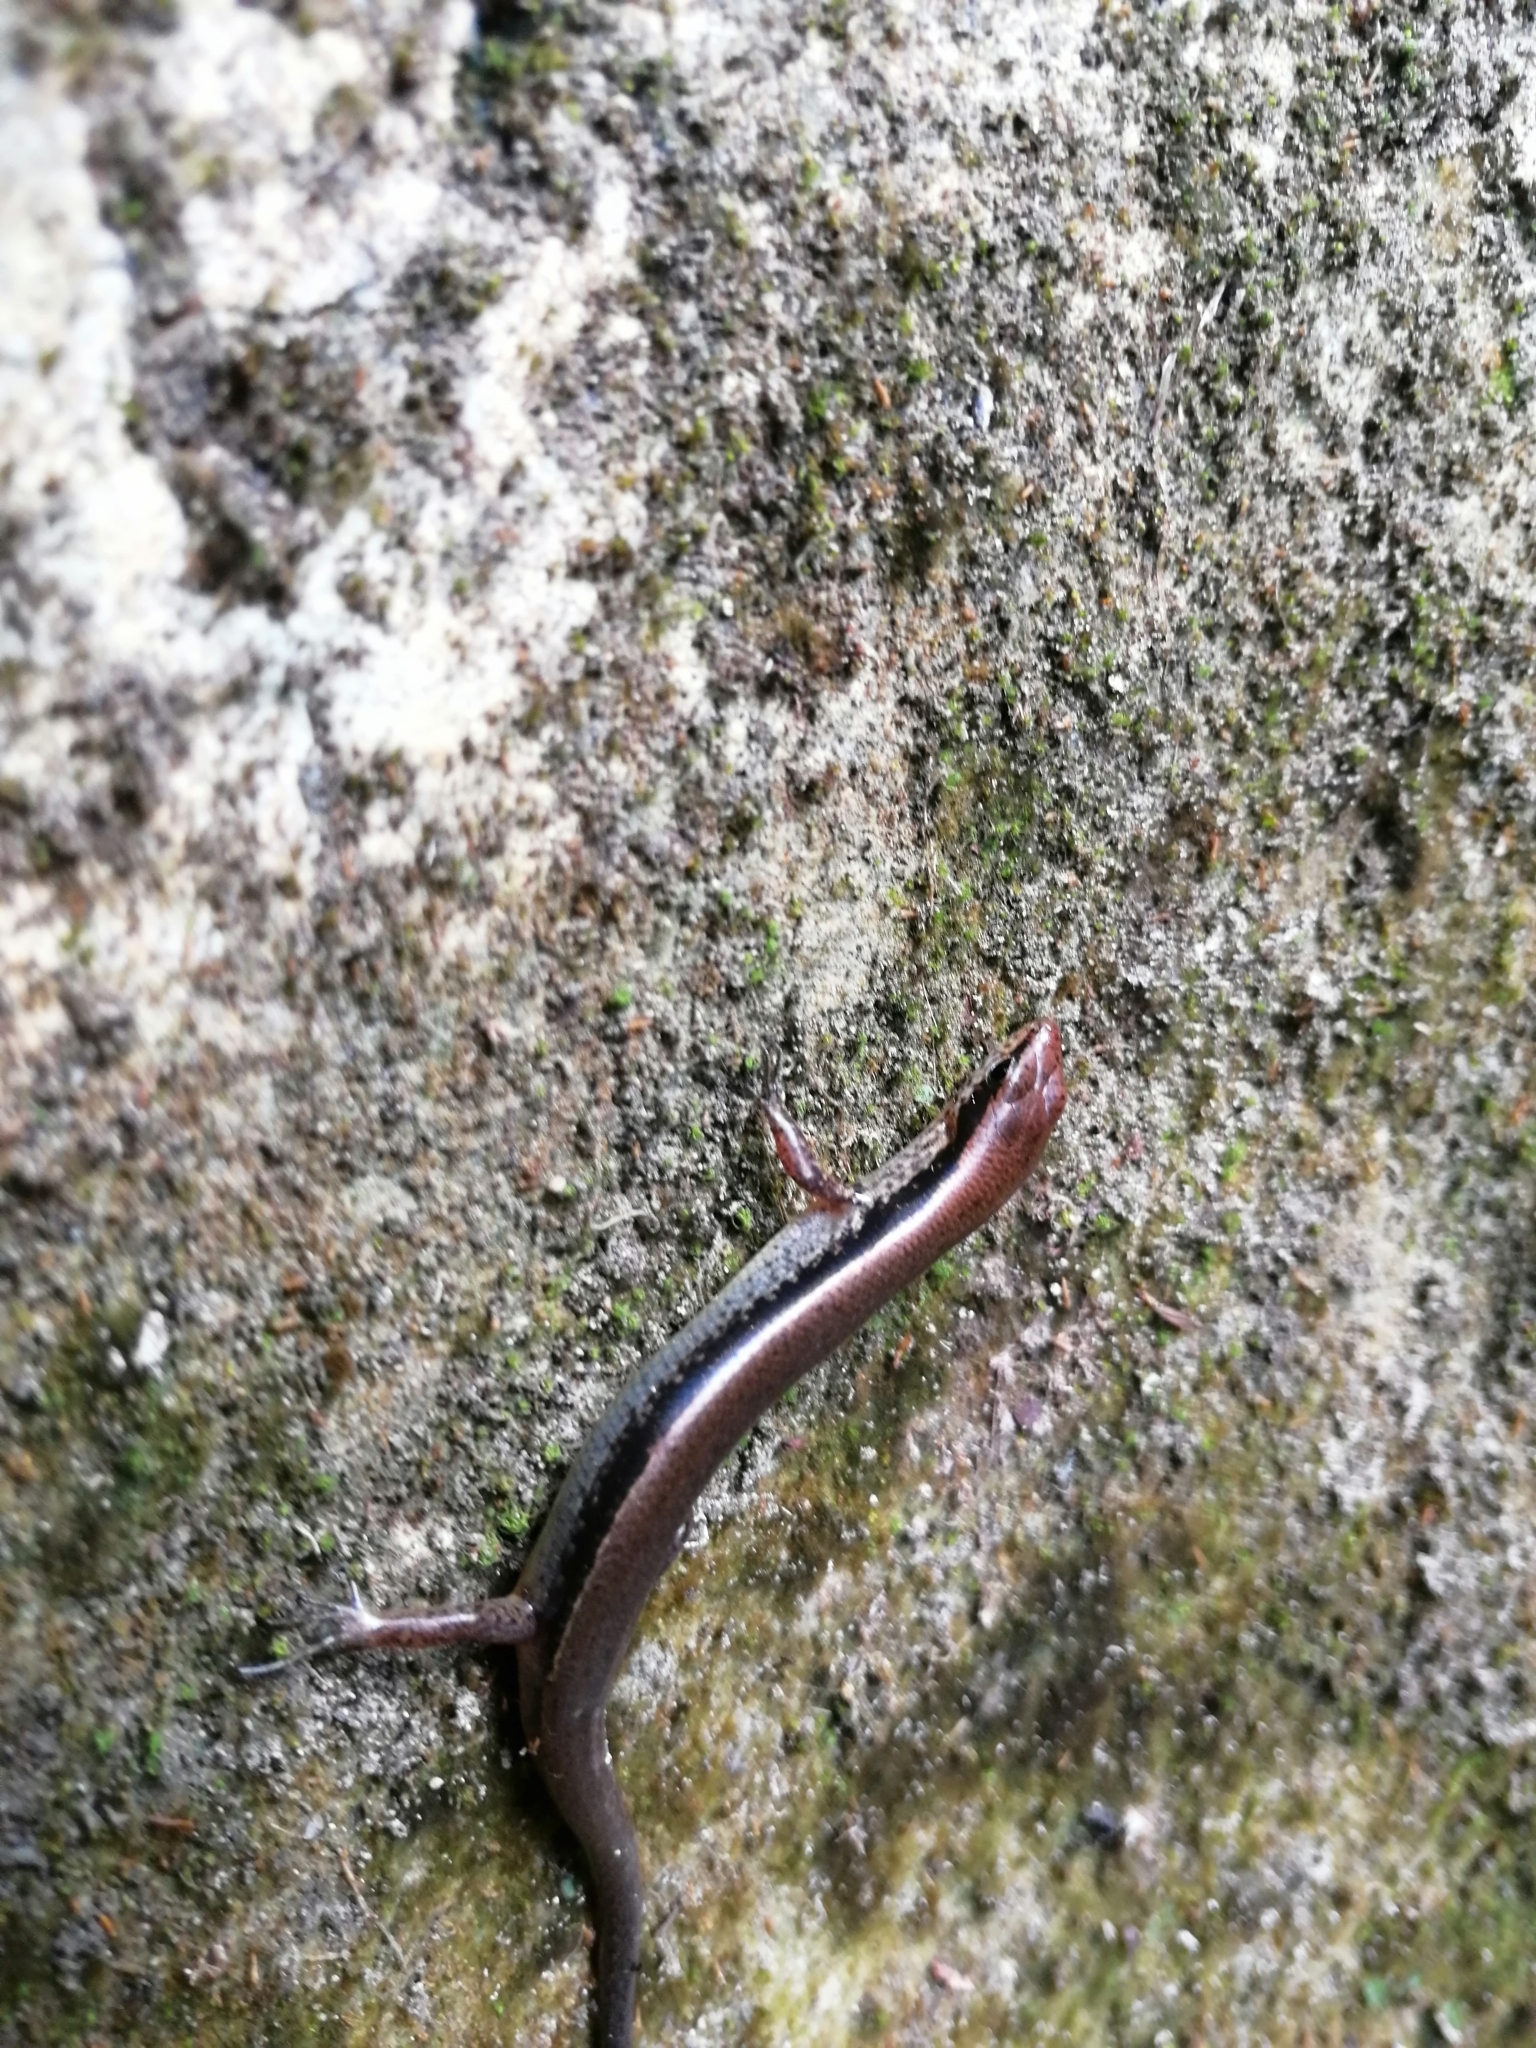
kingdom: Animalia
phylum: Chordata
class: Squamata
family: Scincidae
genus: Scincella
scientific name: Scincella caudaequinae
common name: Horsehead ground skink
